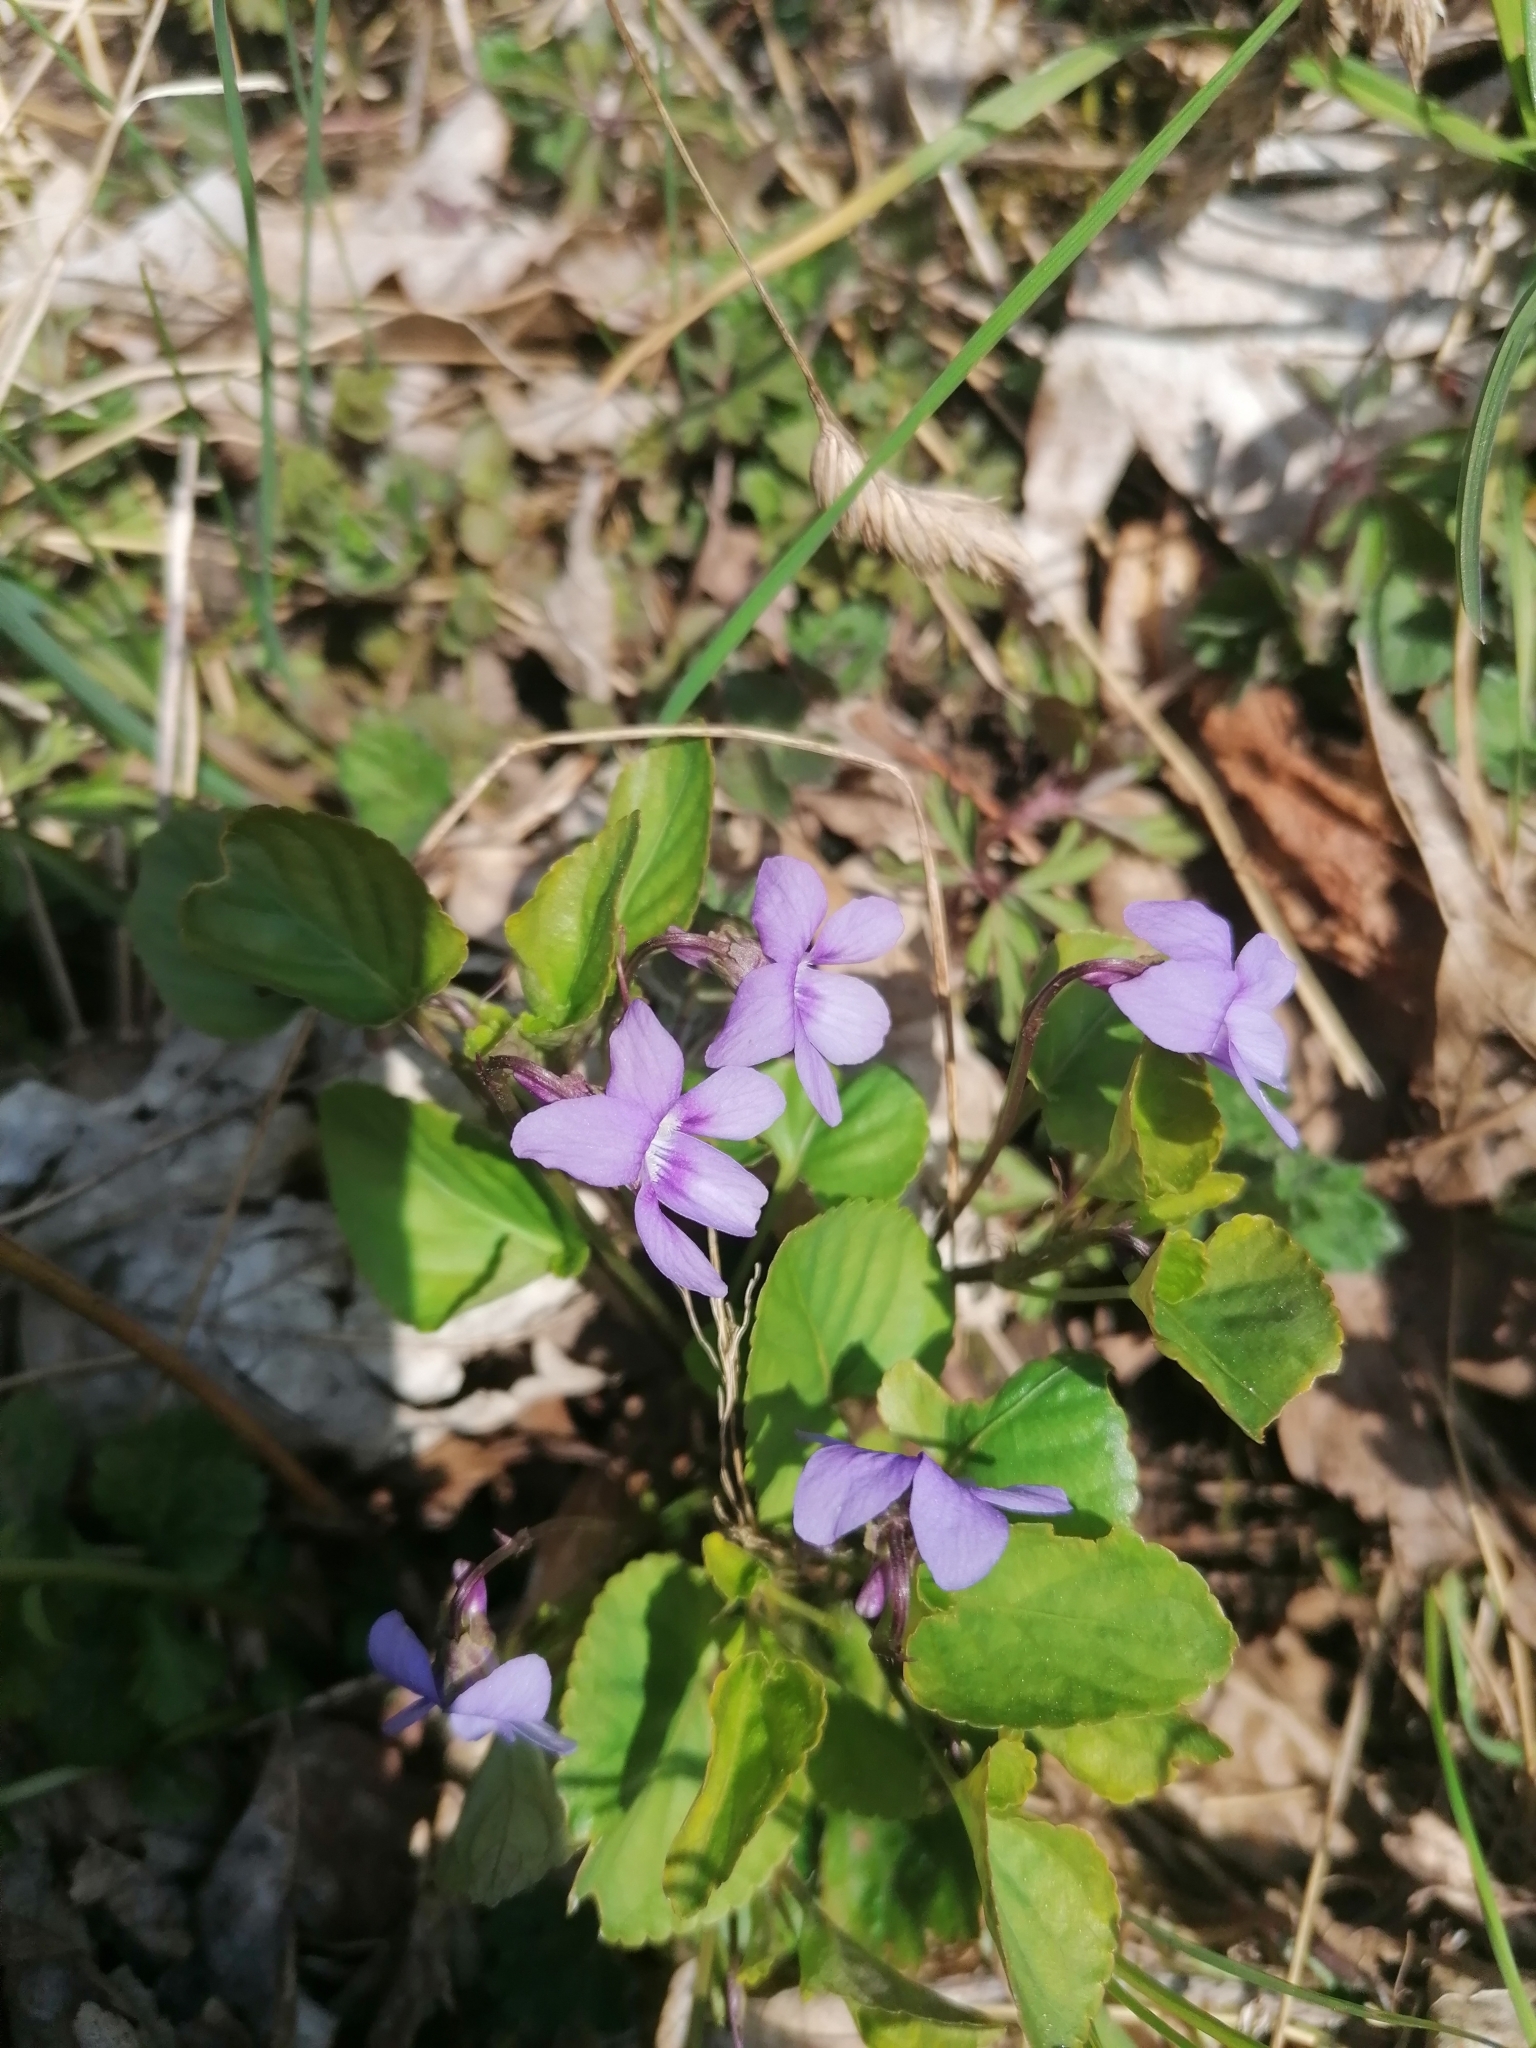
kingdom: Plantae
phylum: Tracheophyta
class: Magnoliopsida
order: Malpighiales
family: Violaceae
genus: Viola
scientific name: Viola reichenbachiana
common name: Early dog-violet
